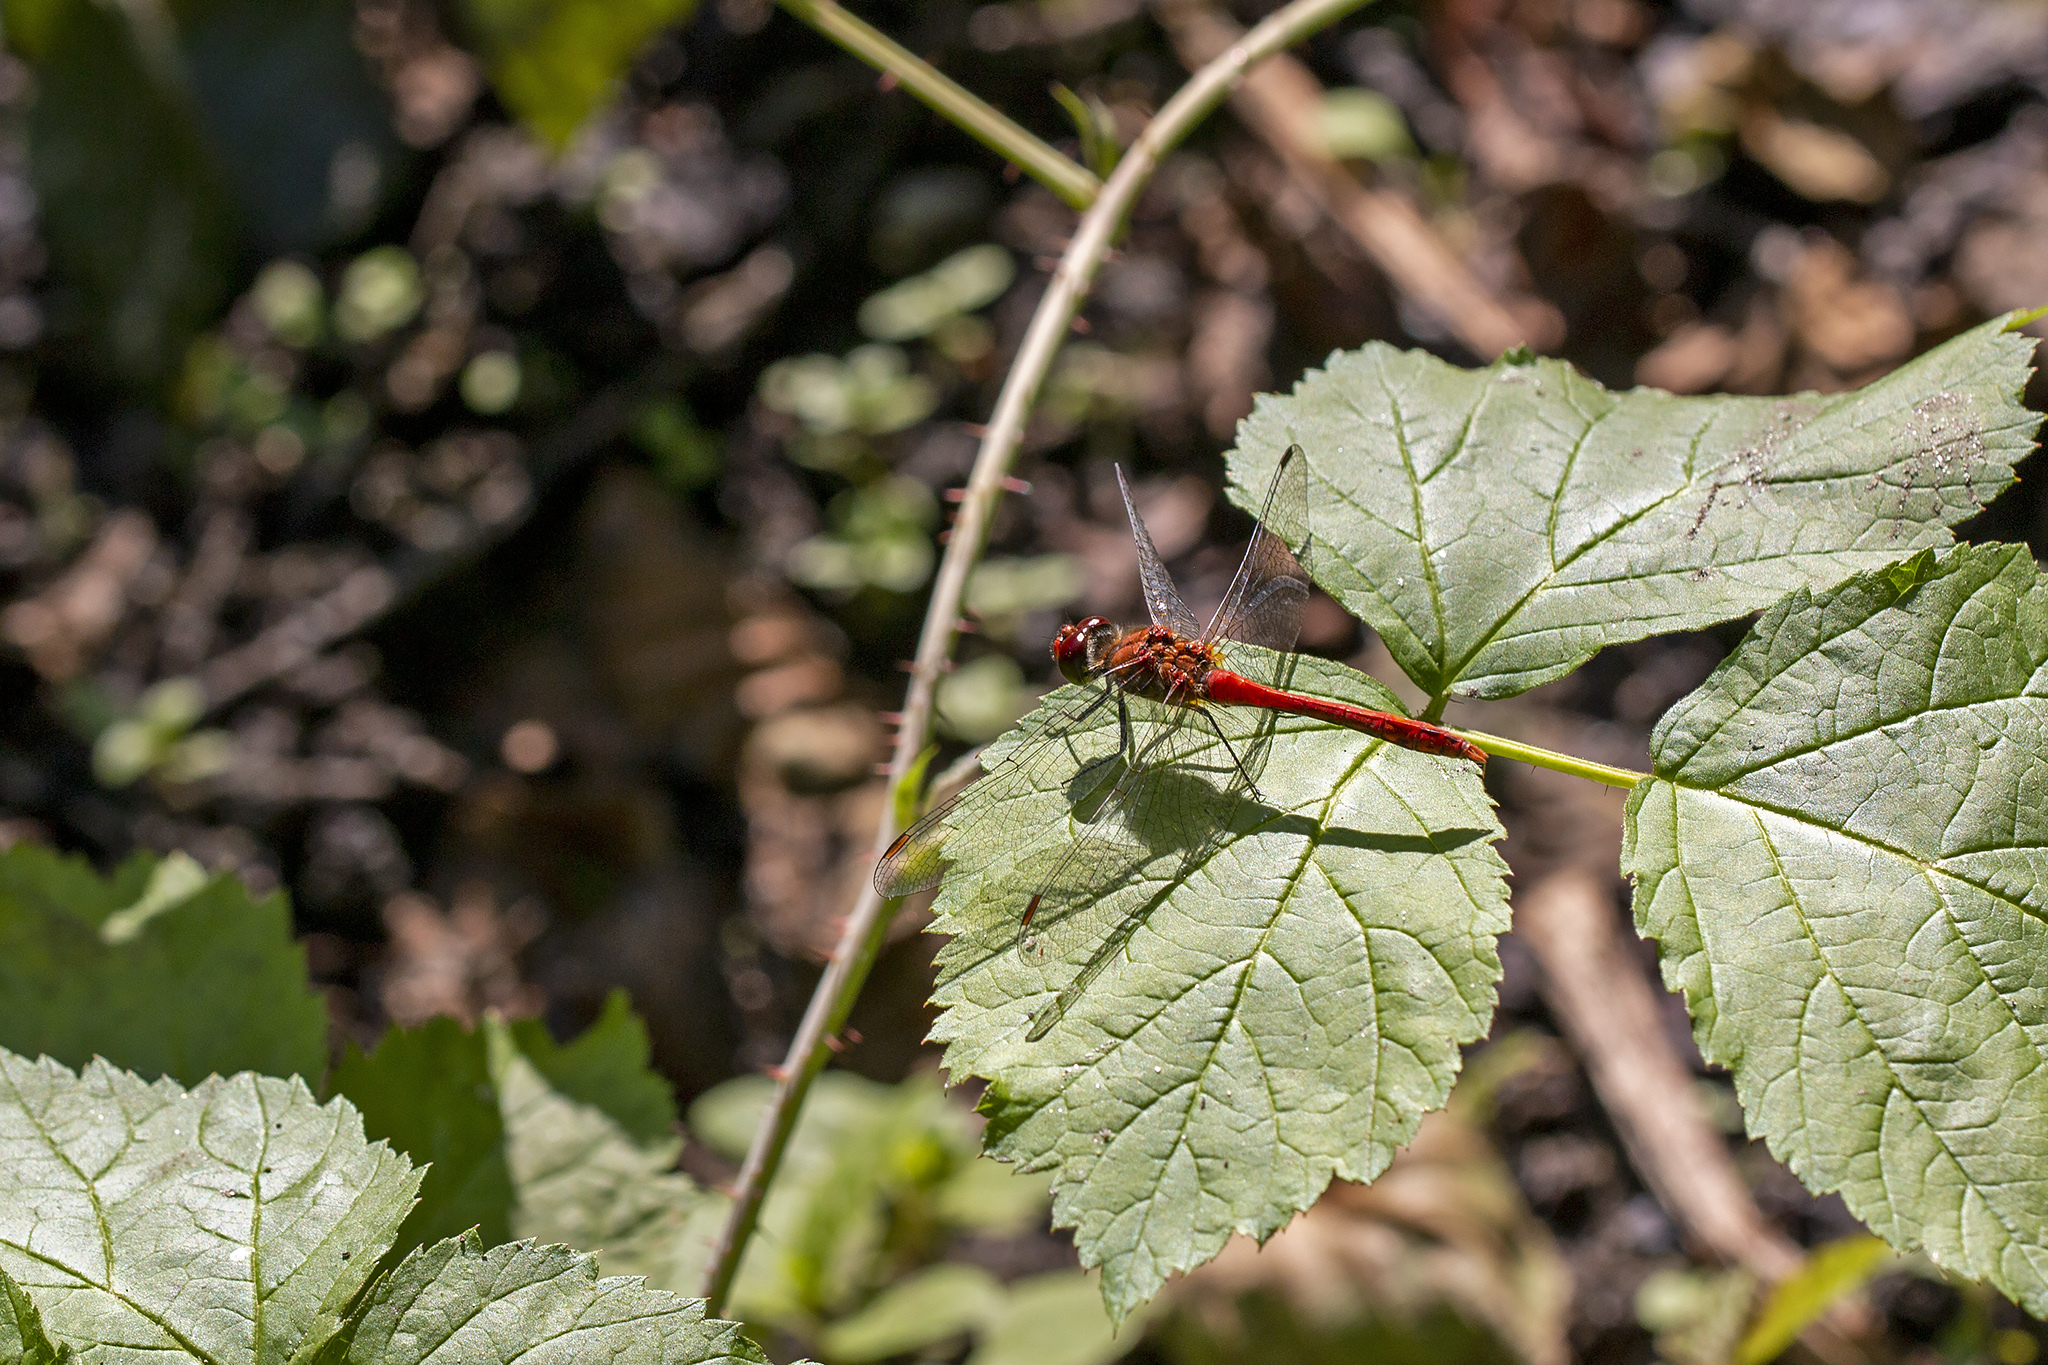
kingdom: Animalia
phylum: Arthropoda
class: Insecta
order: Odonata
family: Libellulidae
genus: Sympetrum
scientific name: Sympetrum sanguineum
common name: Ruddy darter
